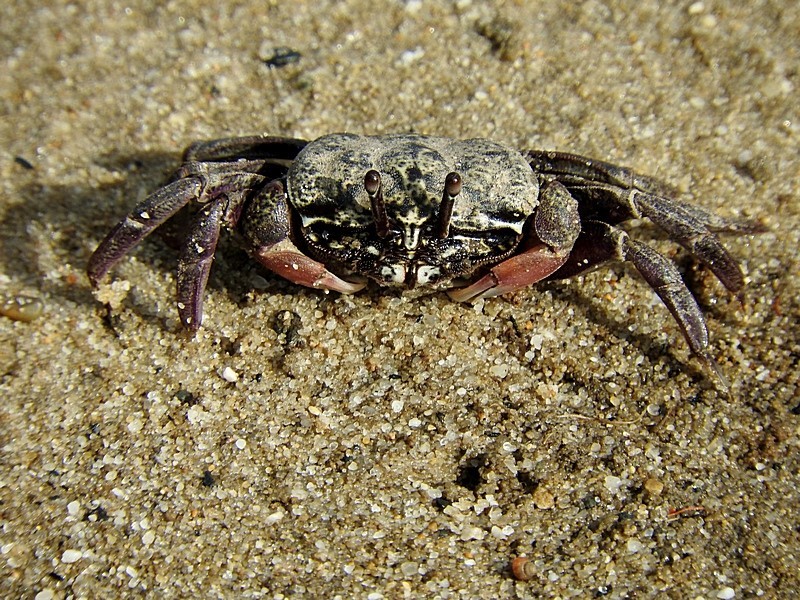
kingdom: Animalia
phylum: Arthropoda
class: Malacostraca
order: Decapoda
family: Heloeciidae
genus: Heloecius
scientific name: Heloecius cordiformis
